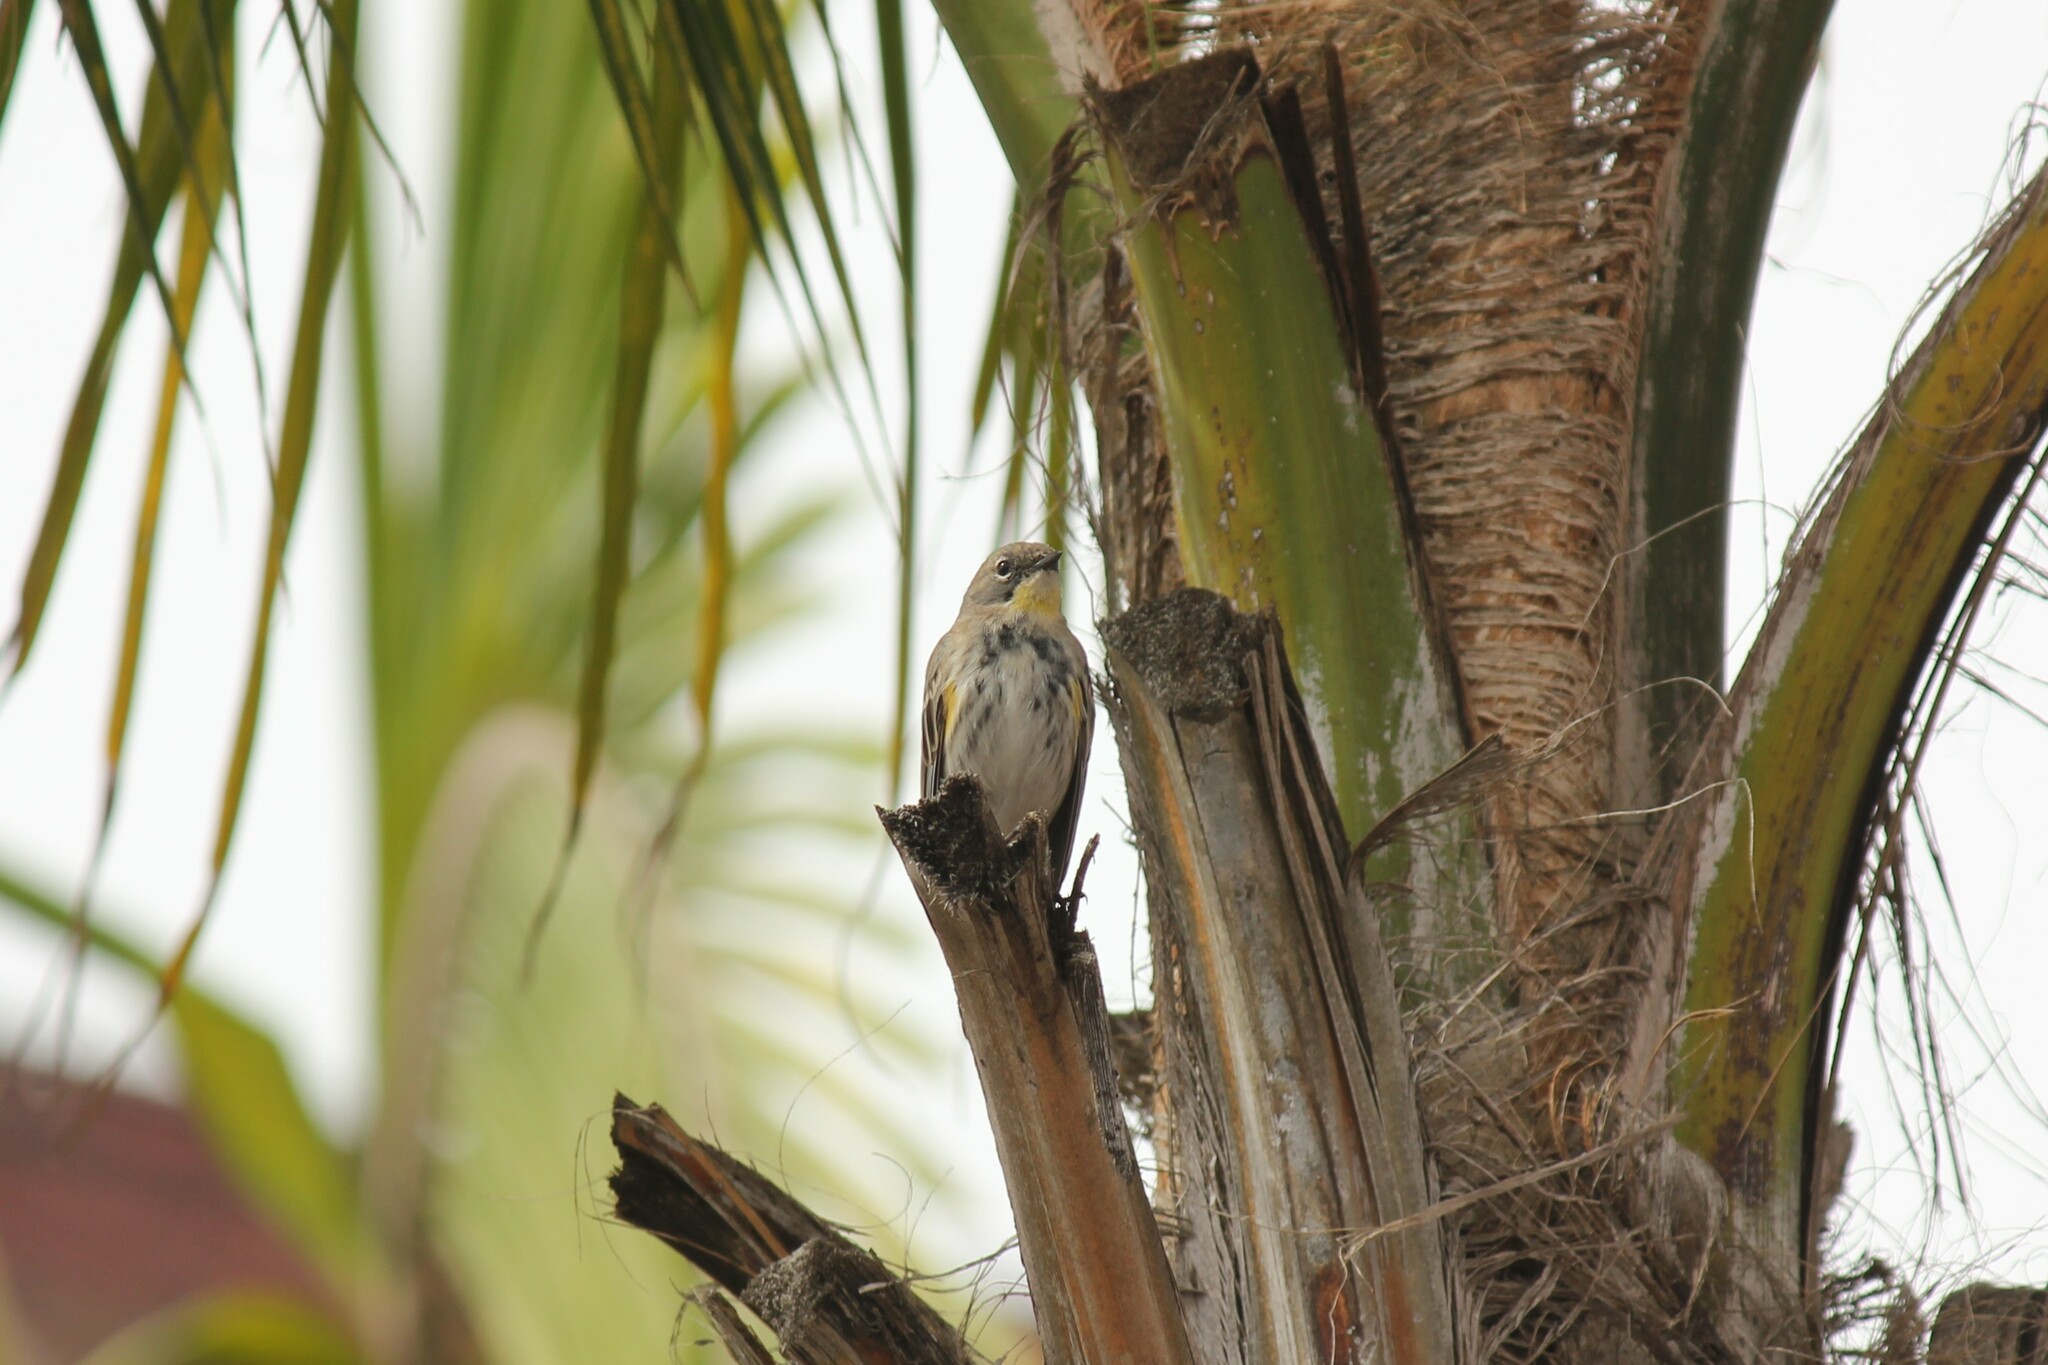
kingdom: Animalia
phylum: Chordata
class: Aves
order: Passeriformes
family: Parulidae
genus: Setophaga
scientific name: Setophaga coronata
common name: Myrtle warbler
